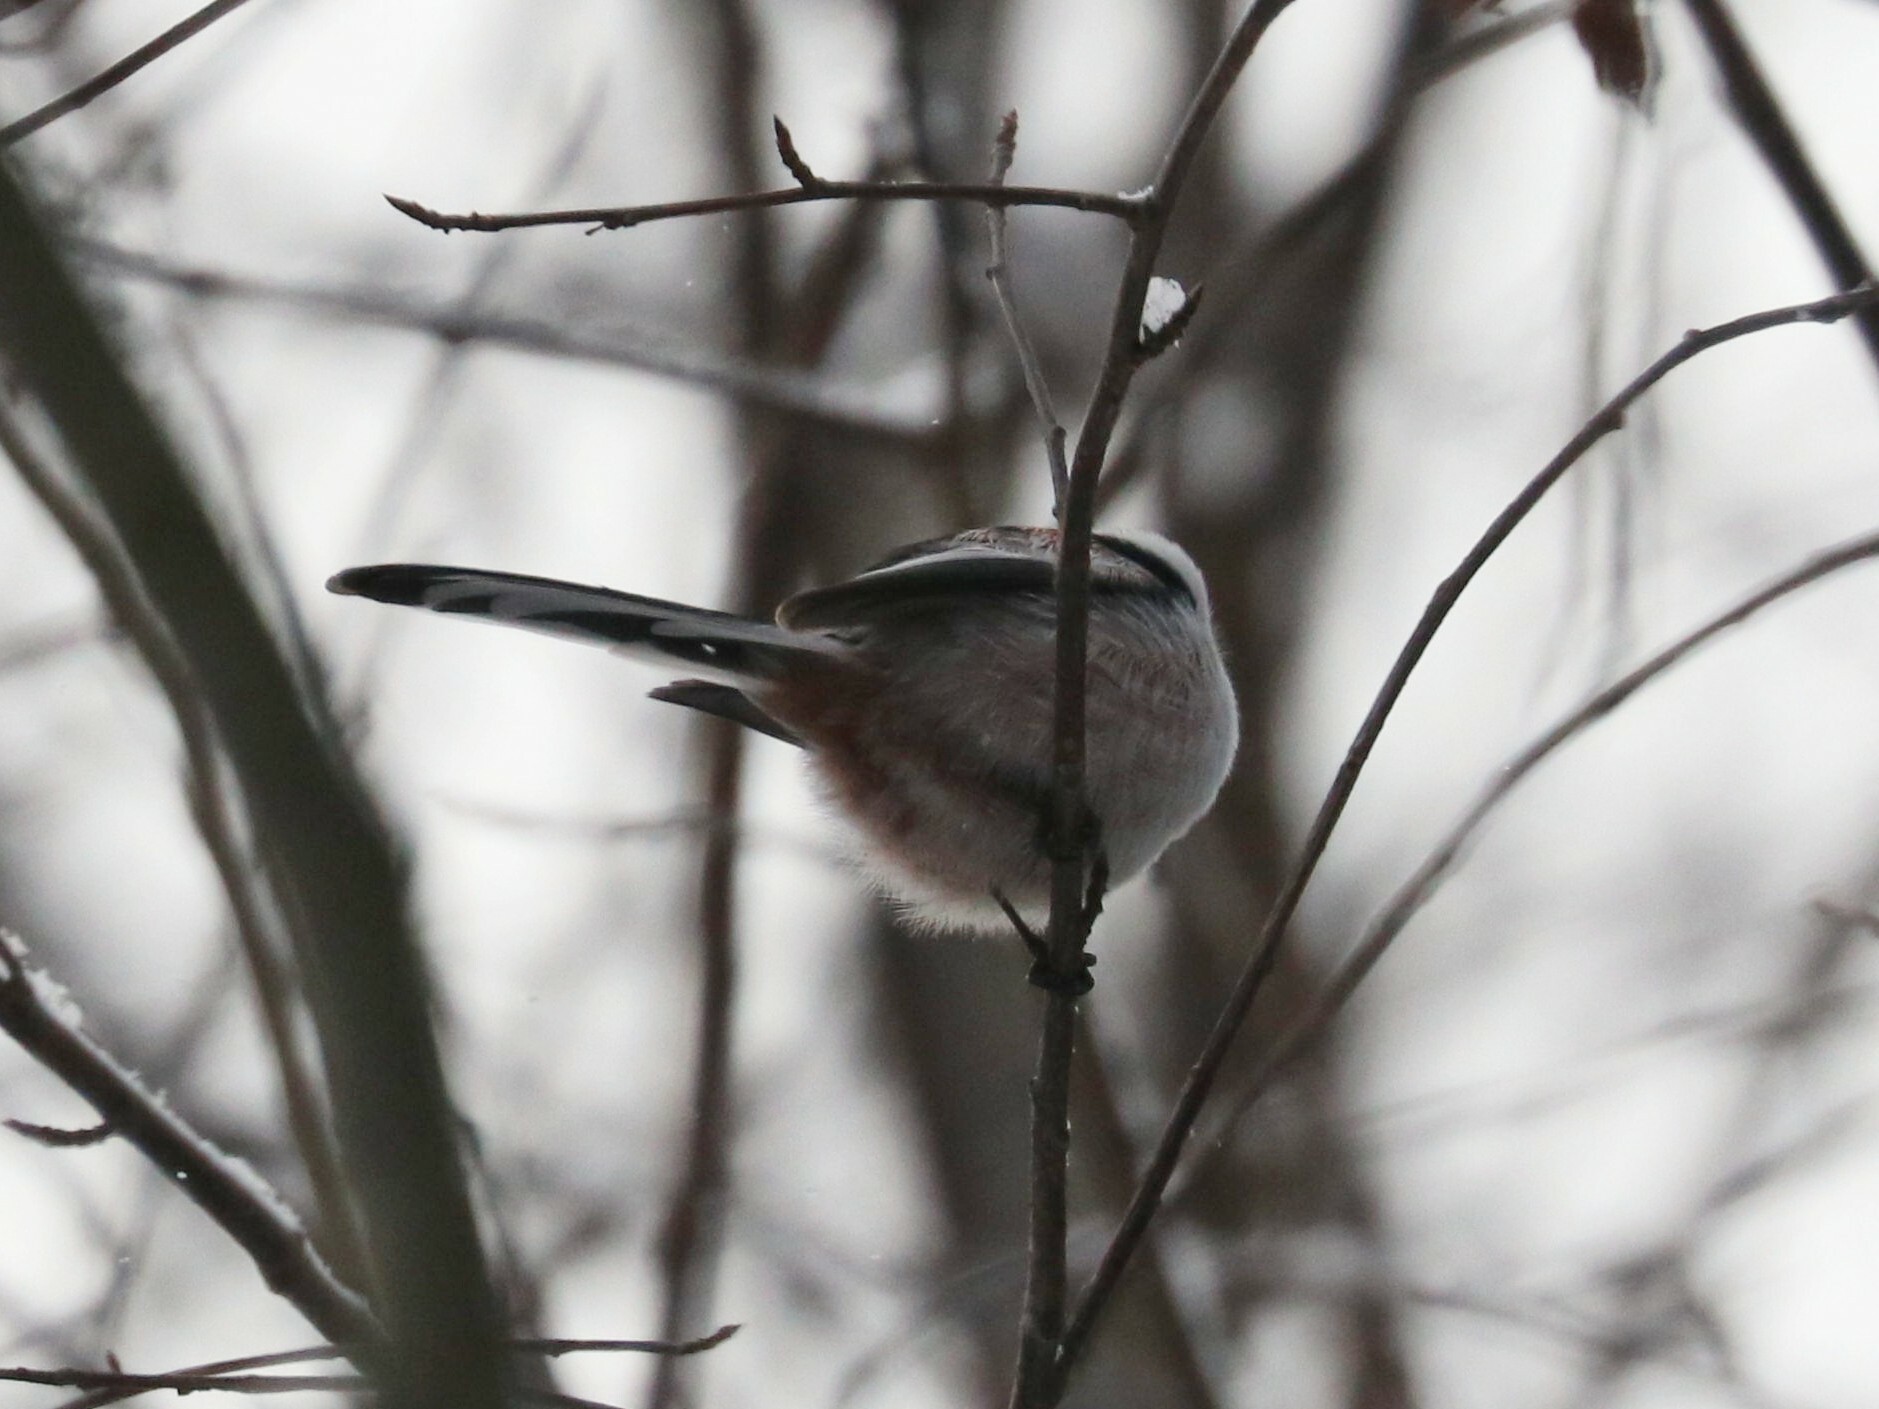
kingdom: Animalia
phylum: Chordata
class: Aves
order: Passeriformes
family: Aegithalidae
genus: Aegithalos
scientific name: Aegithalos caudatus
